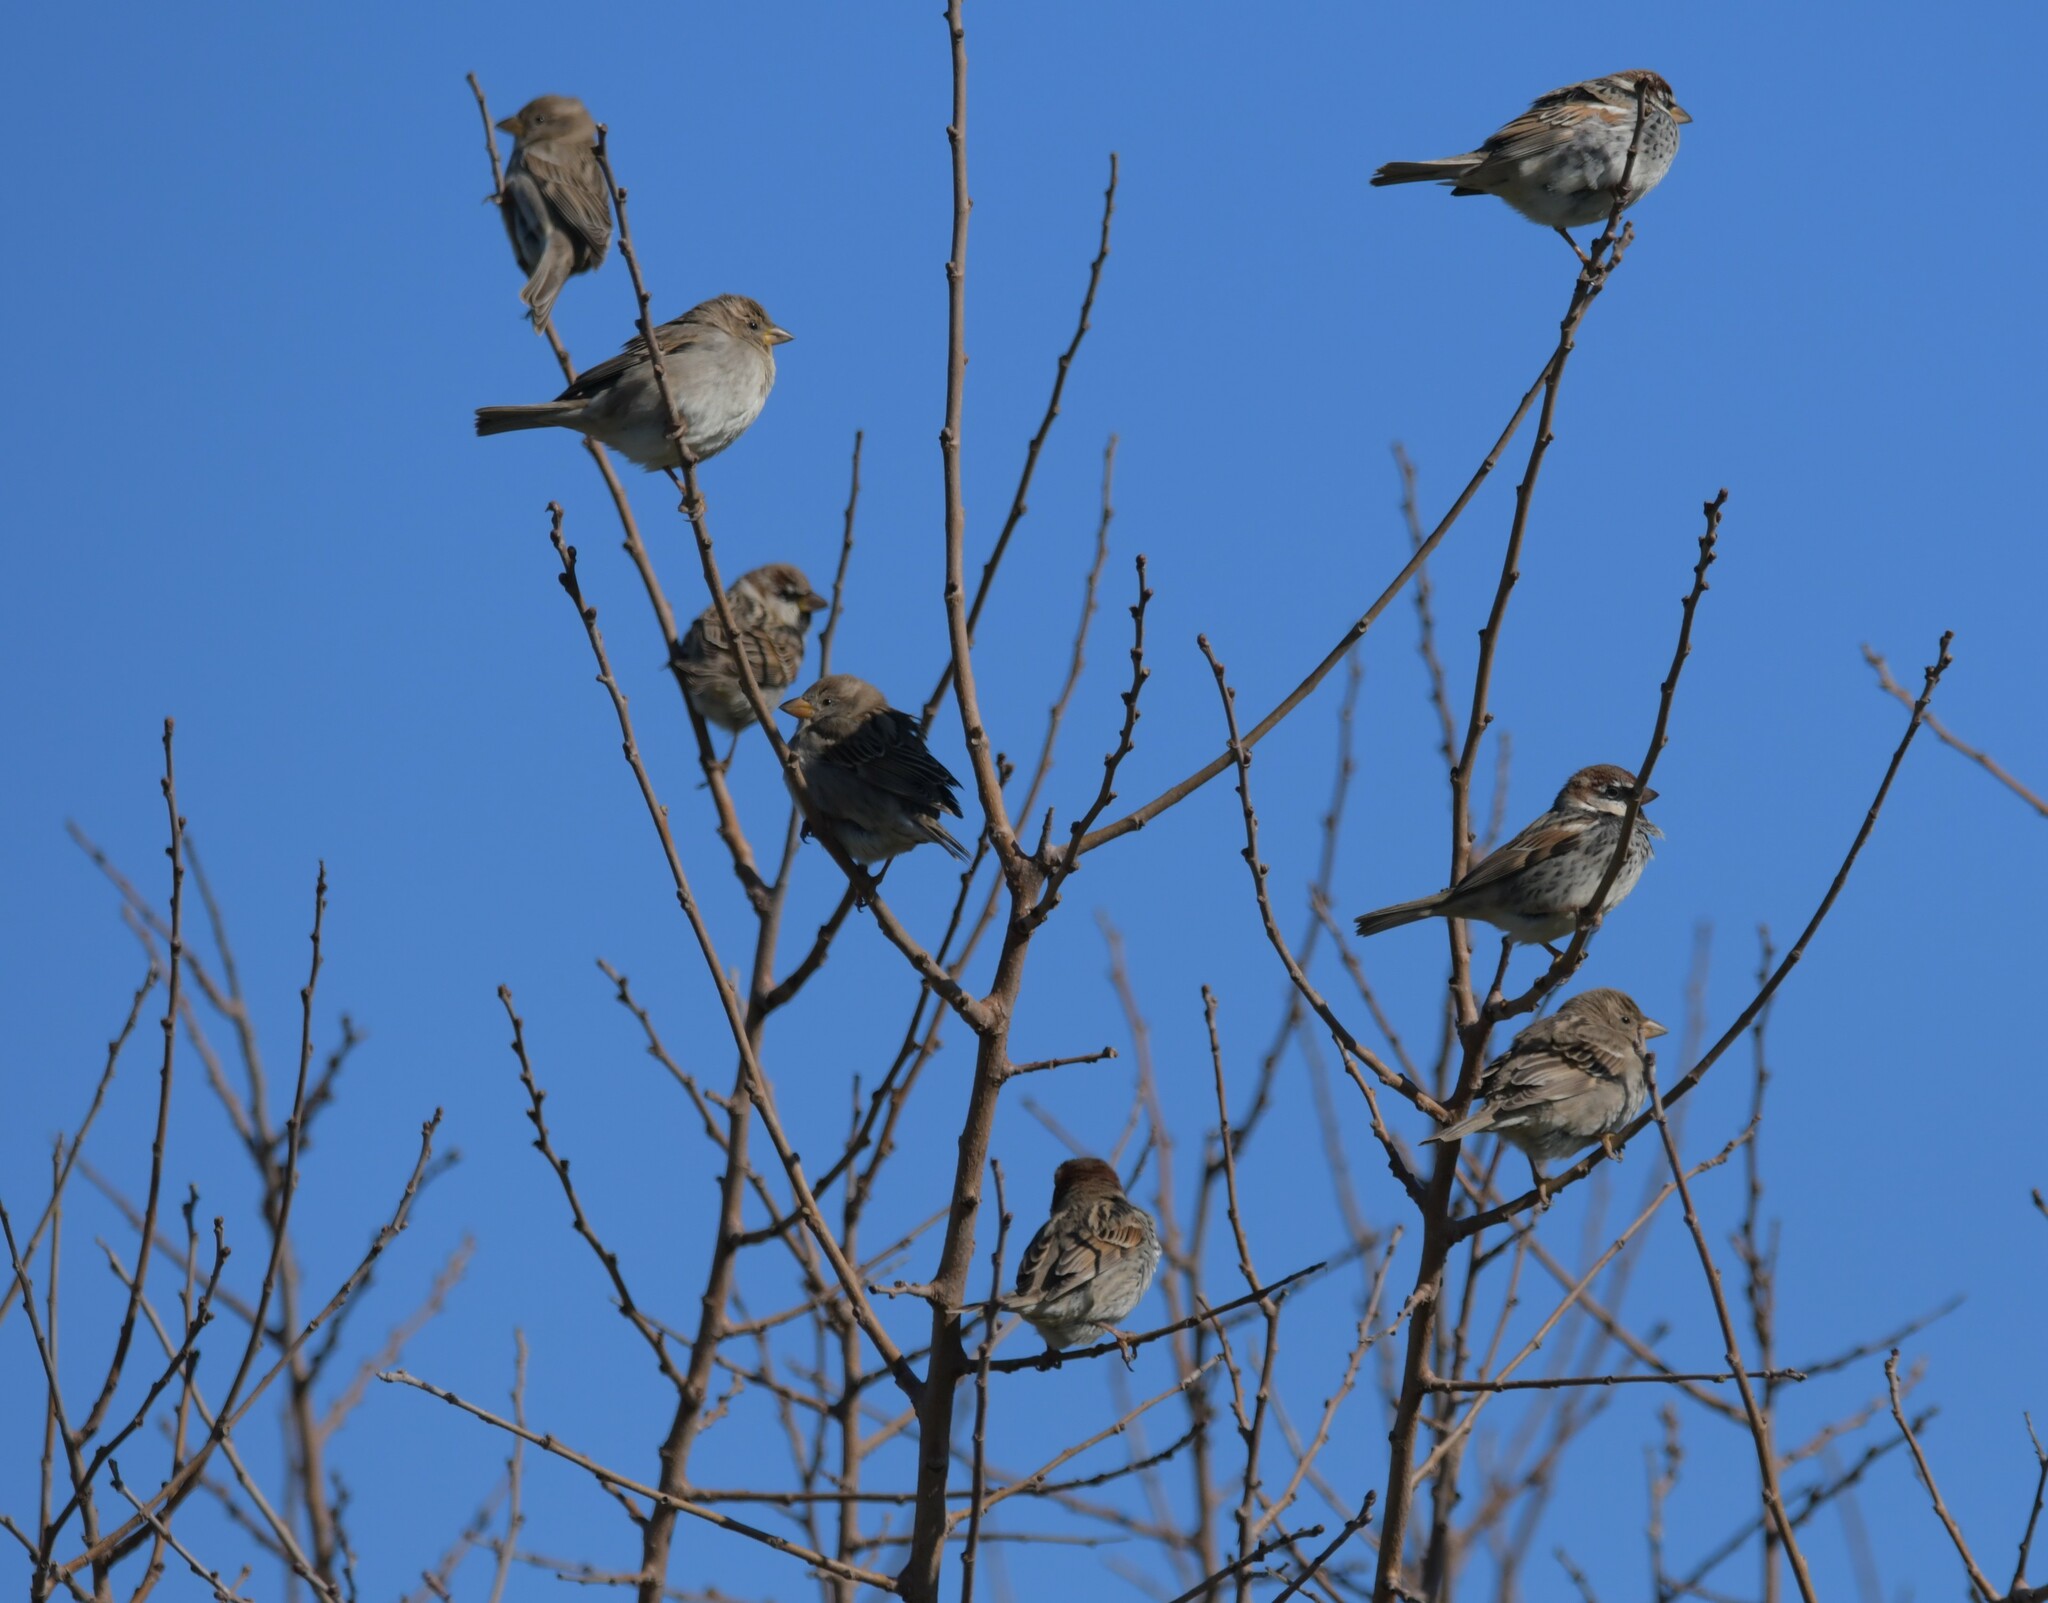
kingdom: Animalia
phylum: Chordata
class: Aves
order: Passeriformes
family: Passeridae
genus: Passer
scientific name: Passer hispaniolensis
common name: Spanish sparrow
